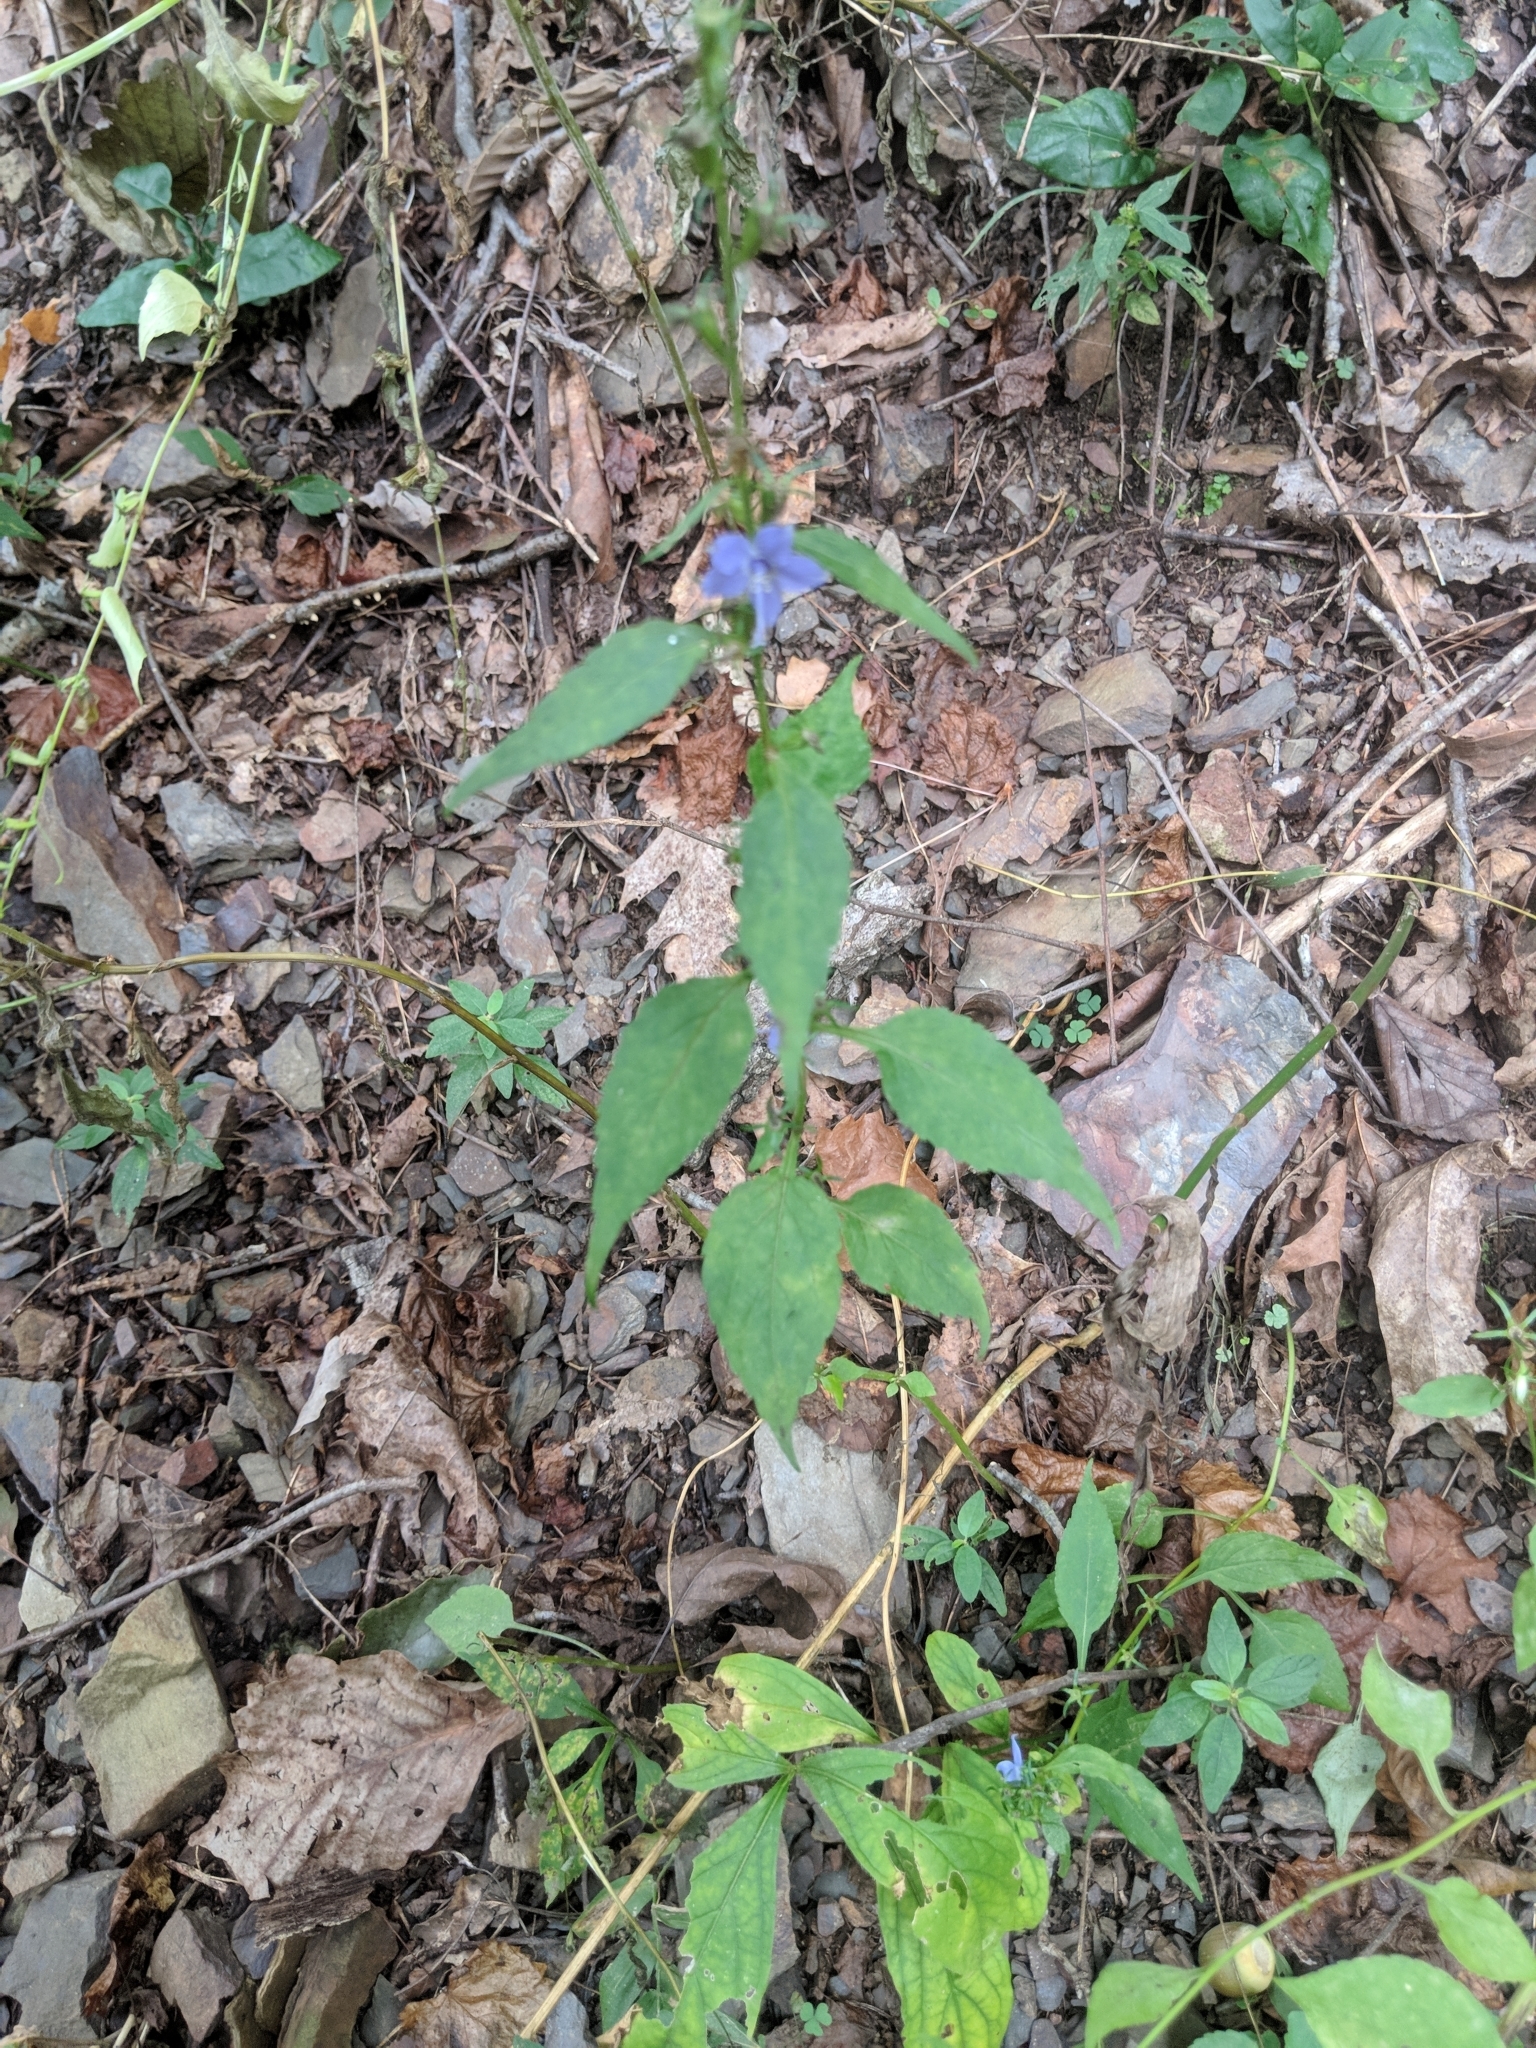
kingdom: Plantae
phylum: Tracheophyta
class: Magnoliopsida
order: Asterales
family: Campanulaceae
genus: Campanulastrum
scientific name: Campanulastrum americanum
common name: American bellflower
